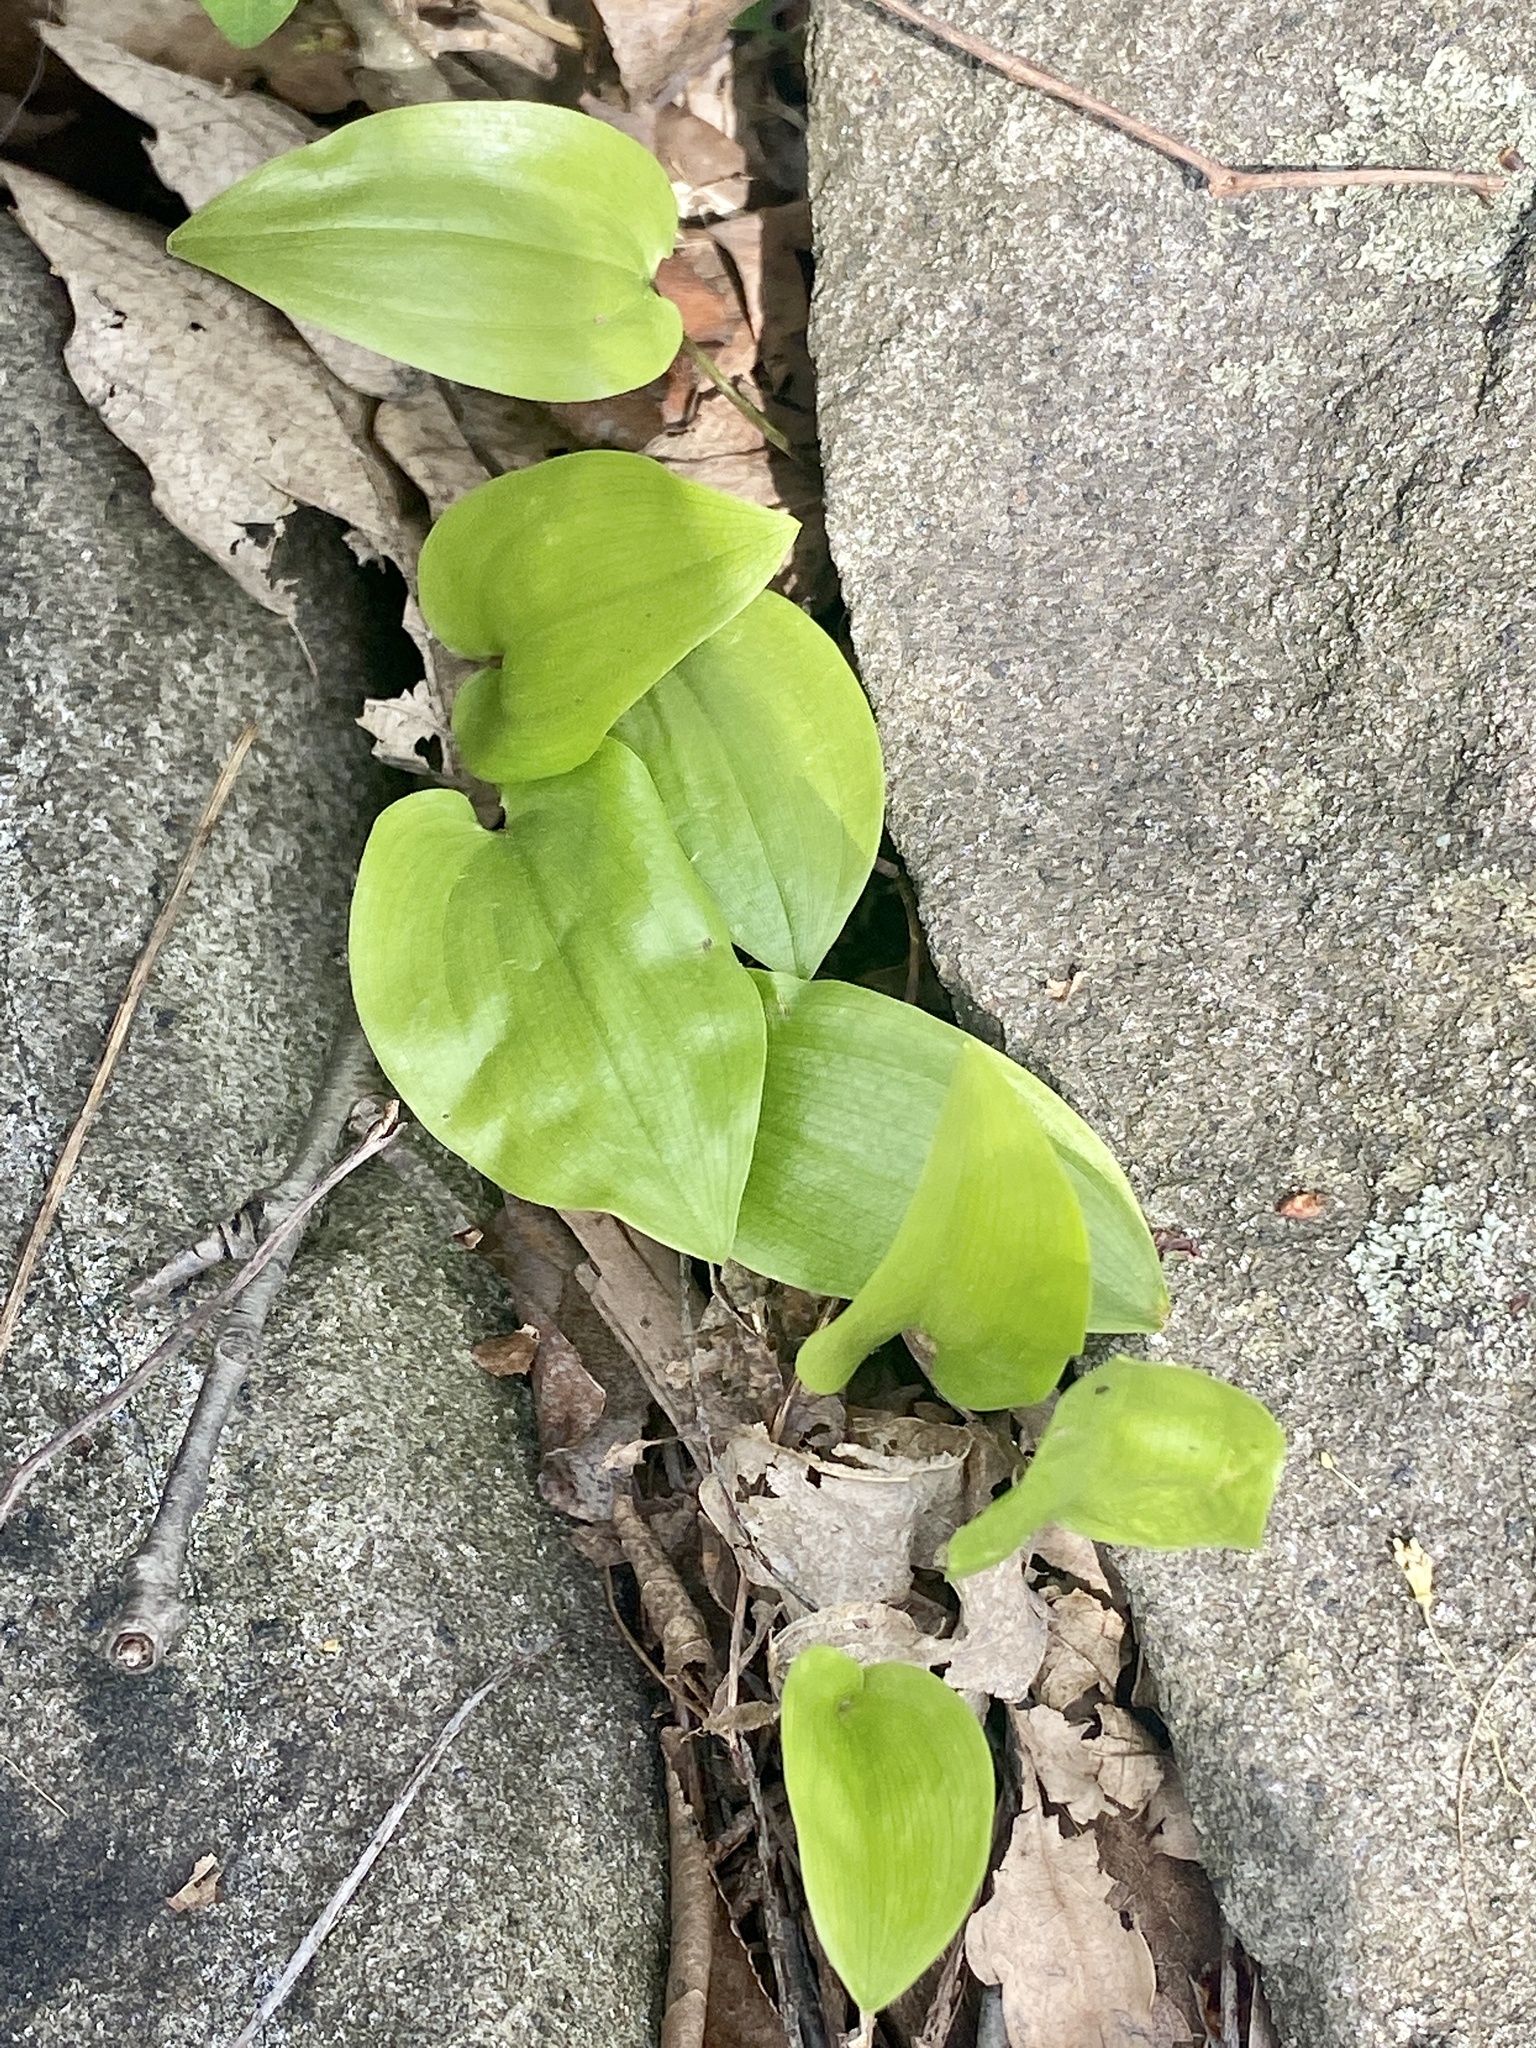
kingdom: Plantae
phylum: Tracheophyta
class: Liliopsida
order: Asparagales
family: Asparagaceae
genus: Maianthemum
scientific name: Maianthemum canadense
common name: False lily-of-the-valley
